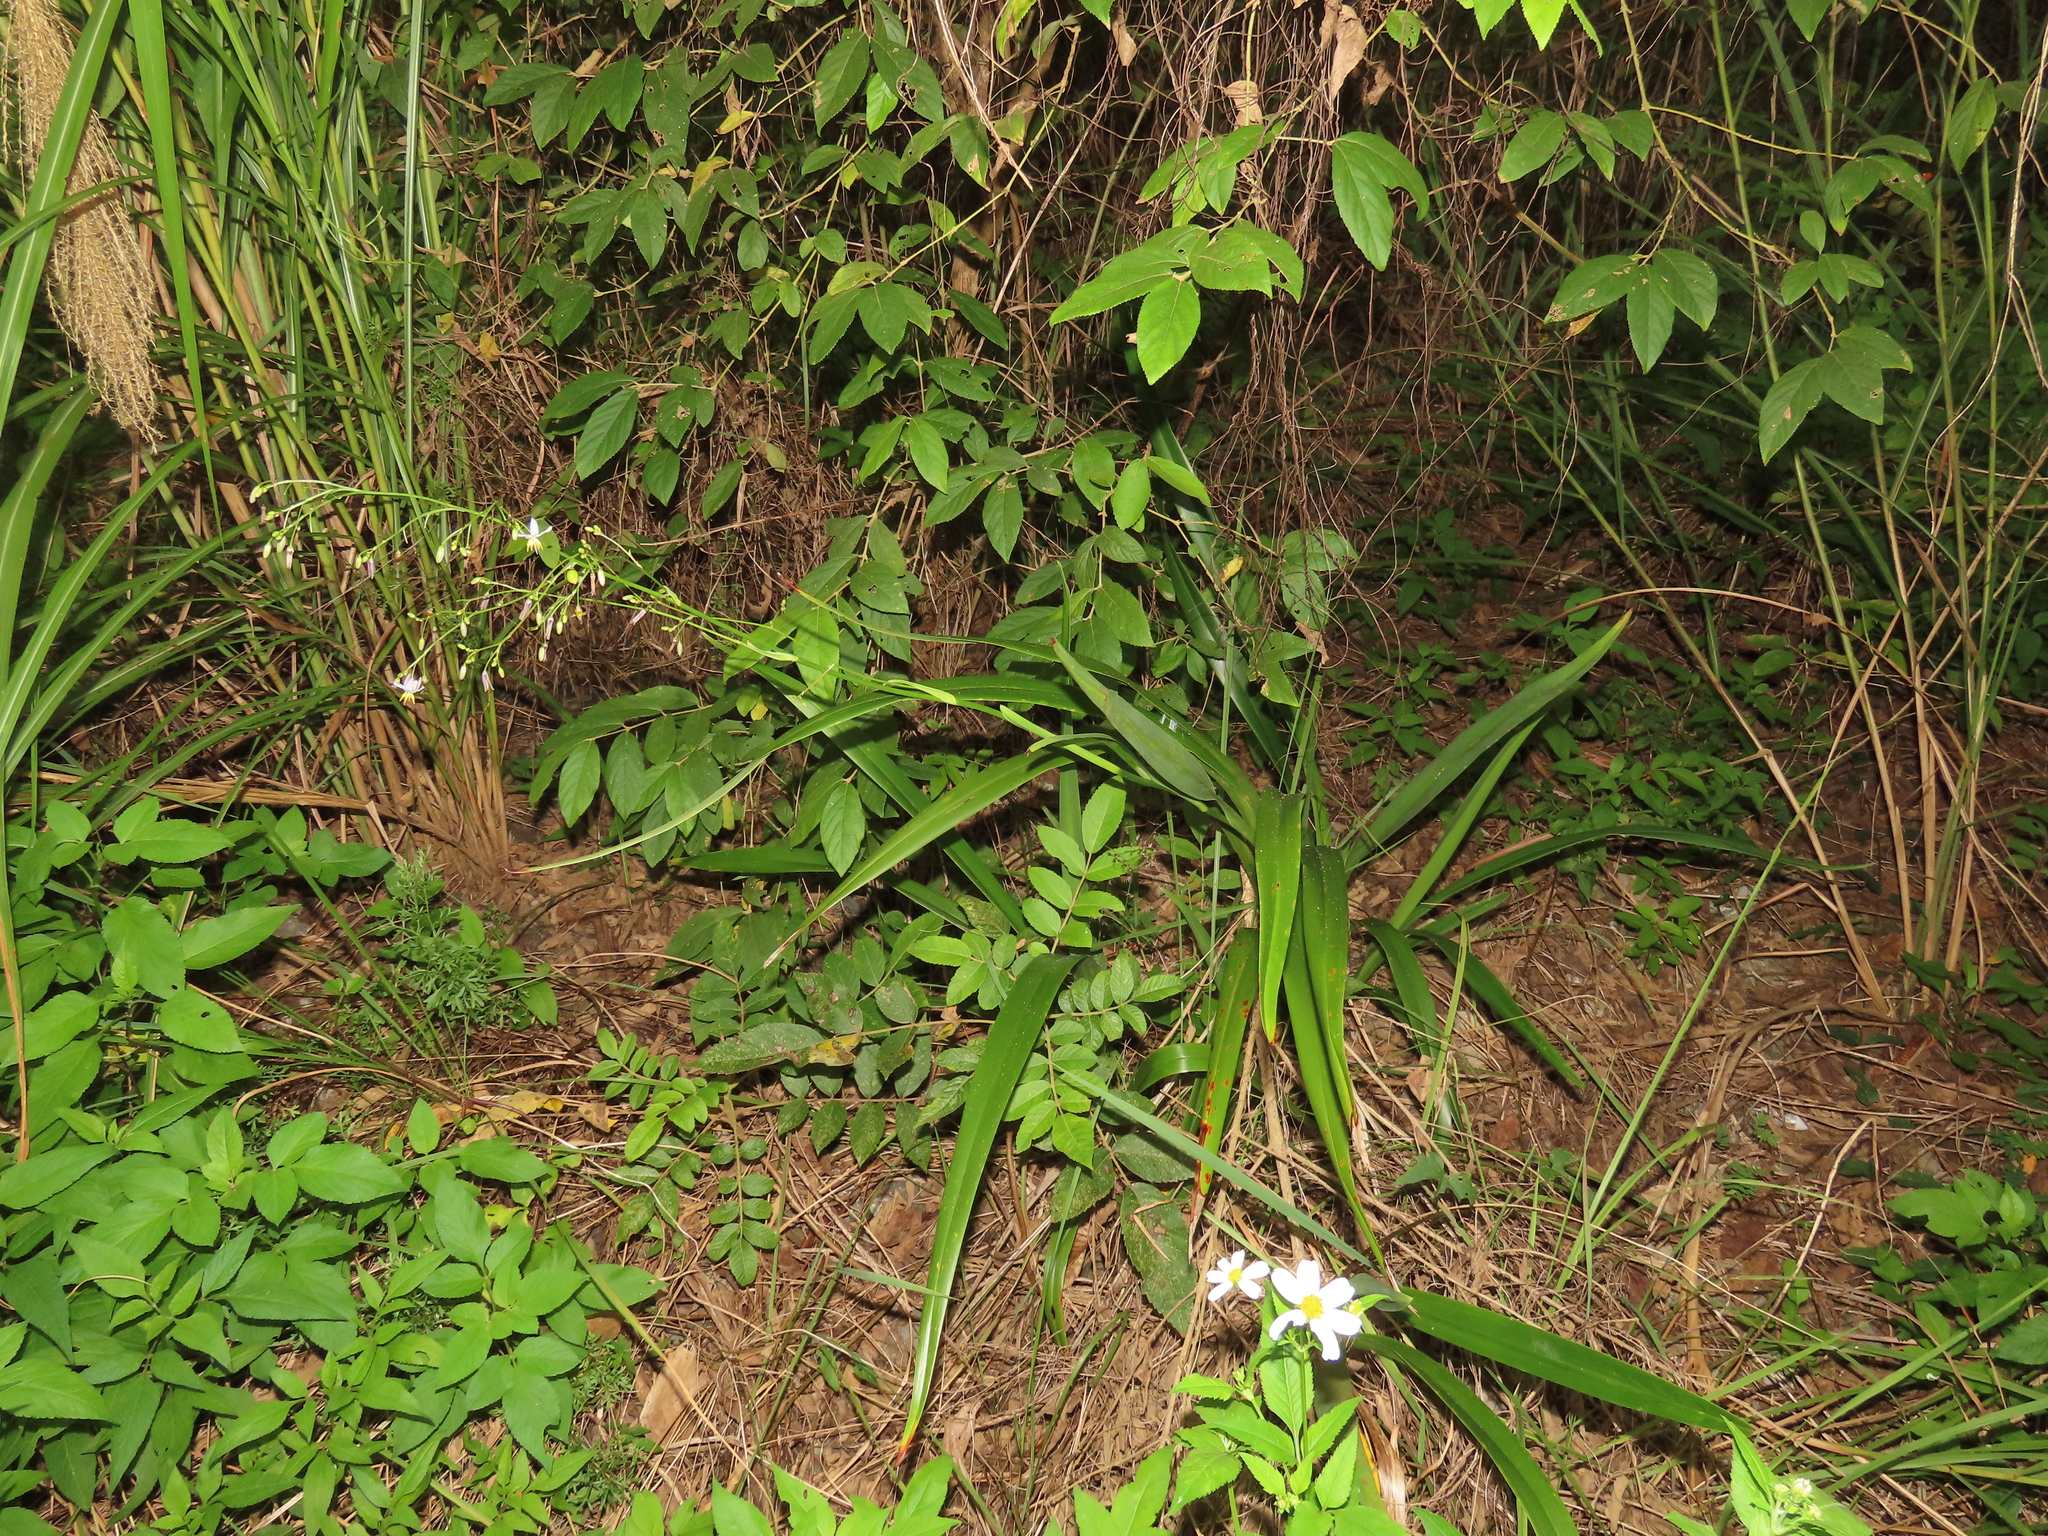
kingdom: Plantae
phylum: Tracheophyta
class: Liliopsida
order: Asparagales
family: Asphodelaceae
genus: Dianella
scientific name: Dianella ensifolia
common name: New zealand lilyplant
